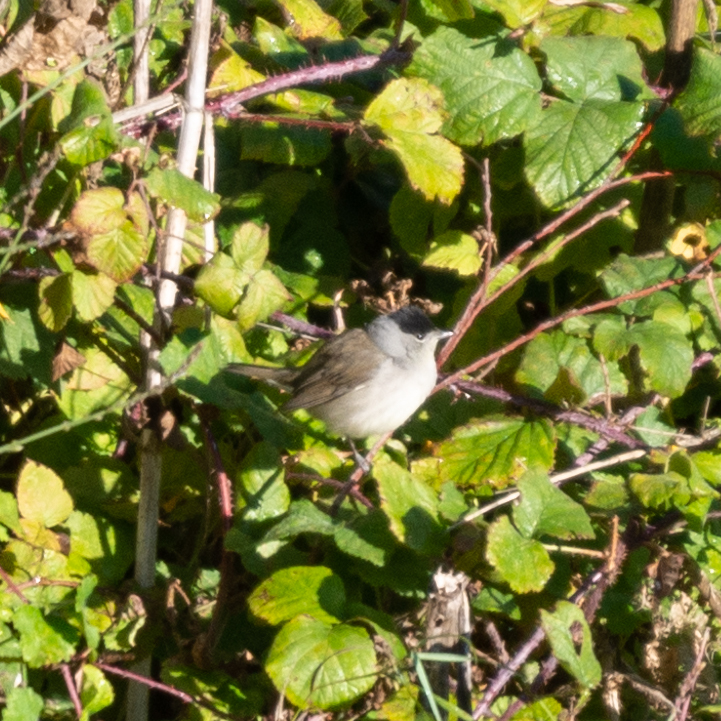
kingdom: Animalia
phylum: Chordata
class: Aves
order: Passeriformes
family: Sylviidae
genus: Sylvia
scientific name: Sylvia atricapilla
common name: Eurasian blackcap
